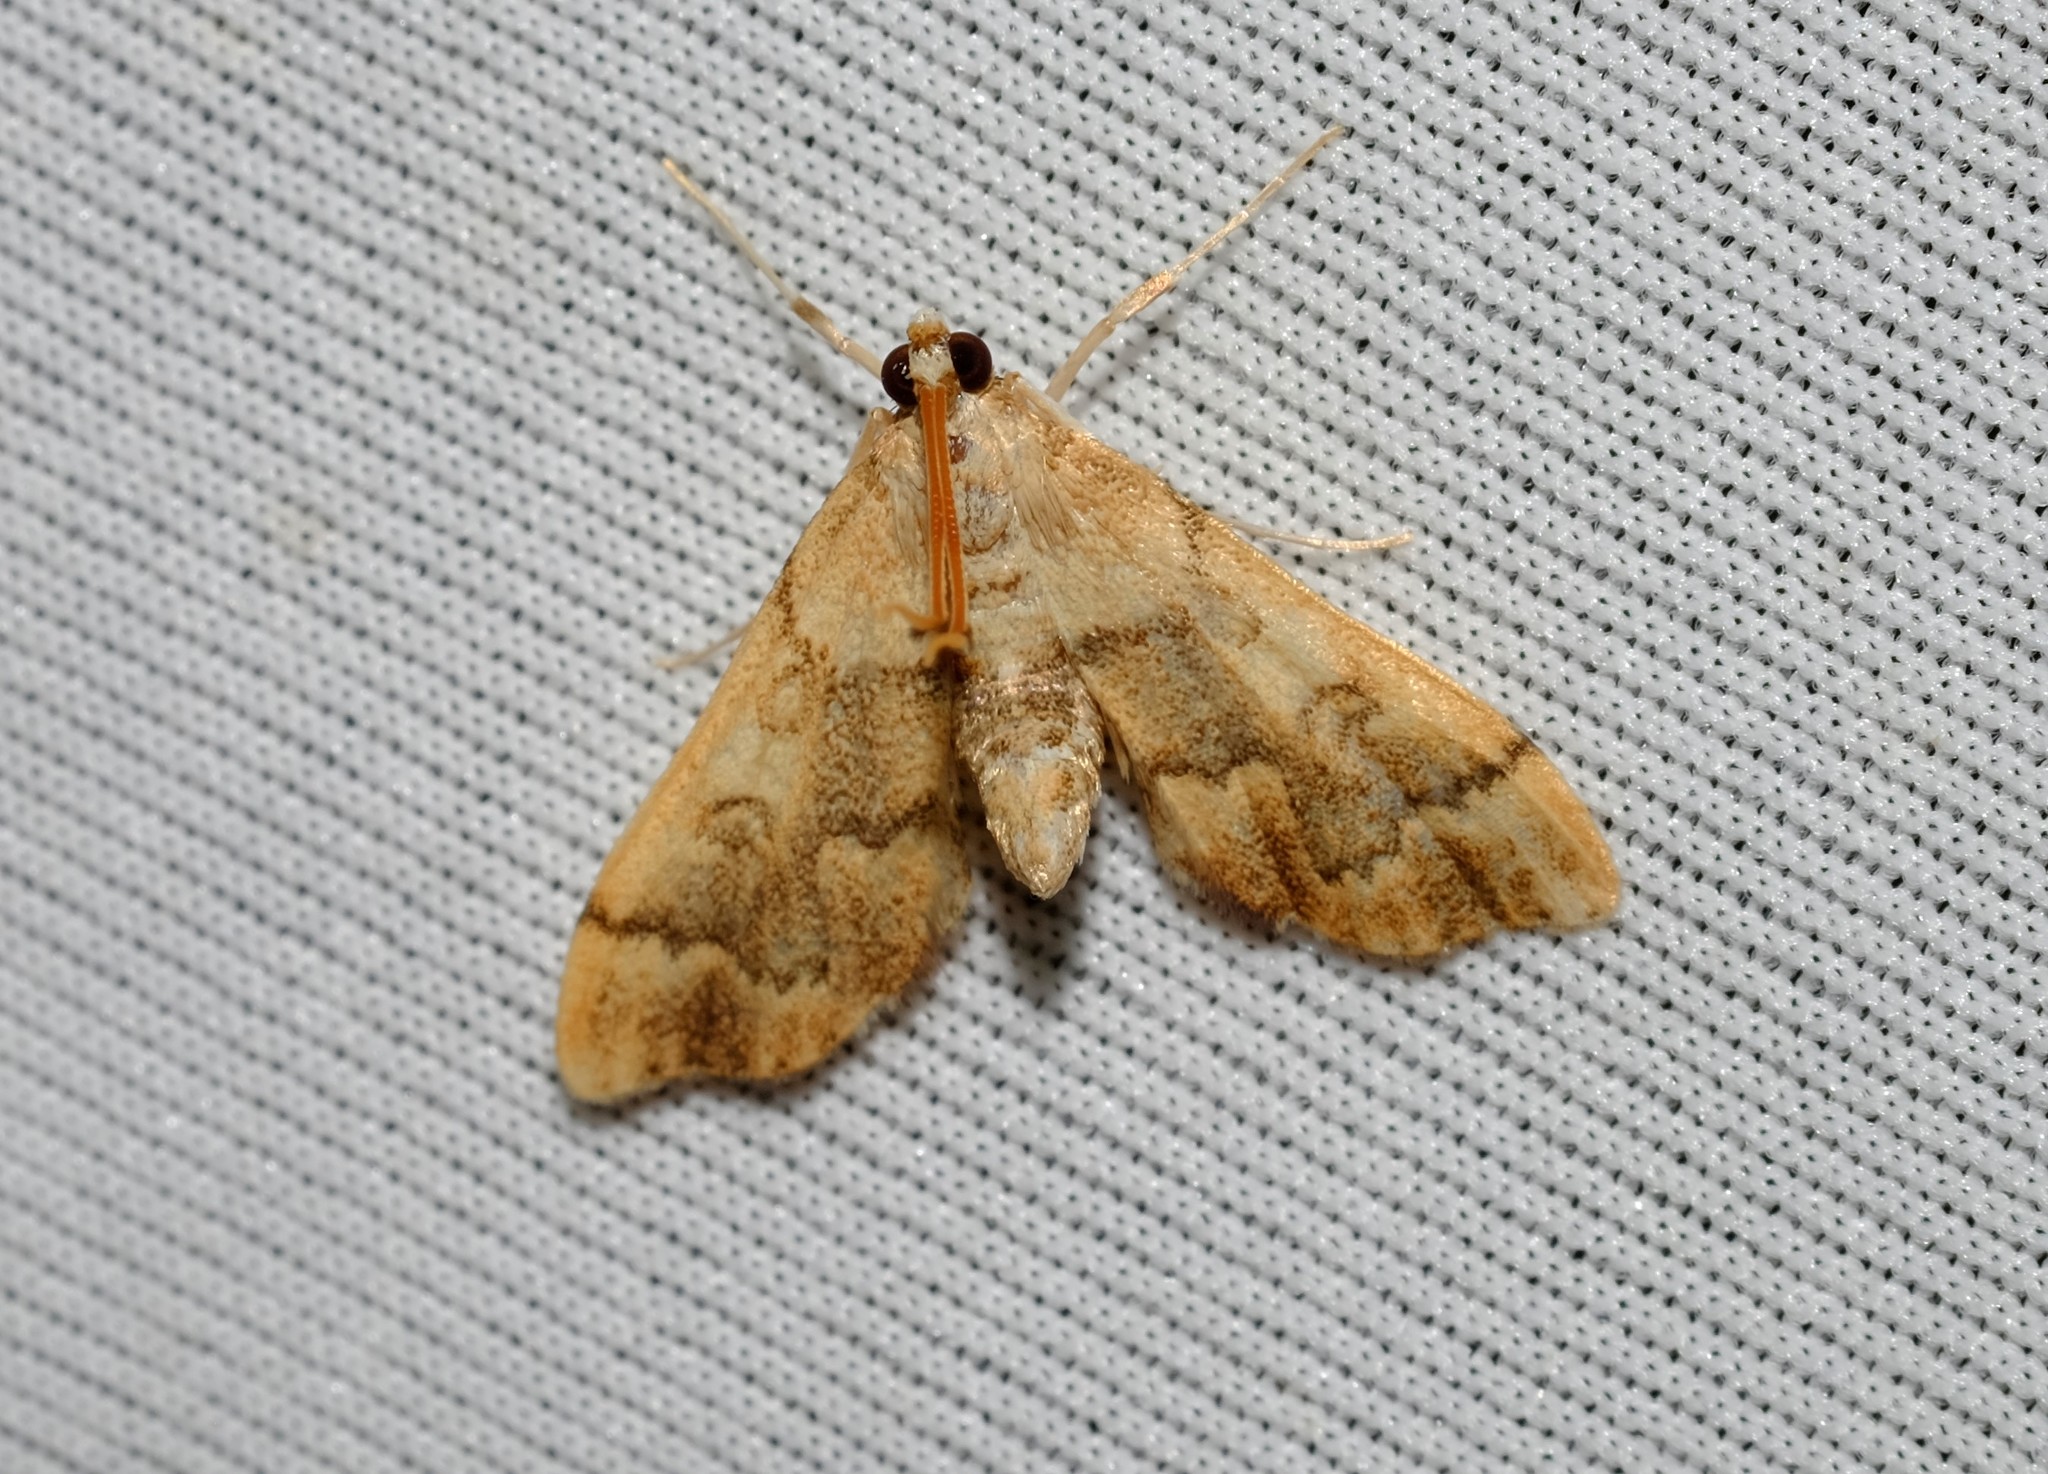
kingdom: Animalia
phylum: Arthropoda
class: Insecta
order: Lepidoptera
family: Crambidae
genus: Nacoleia
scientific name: Nacoleia oncophragma
